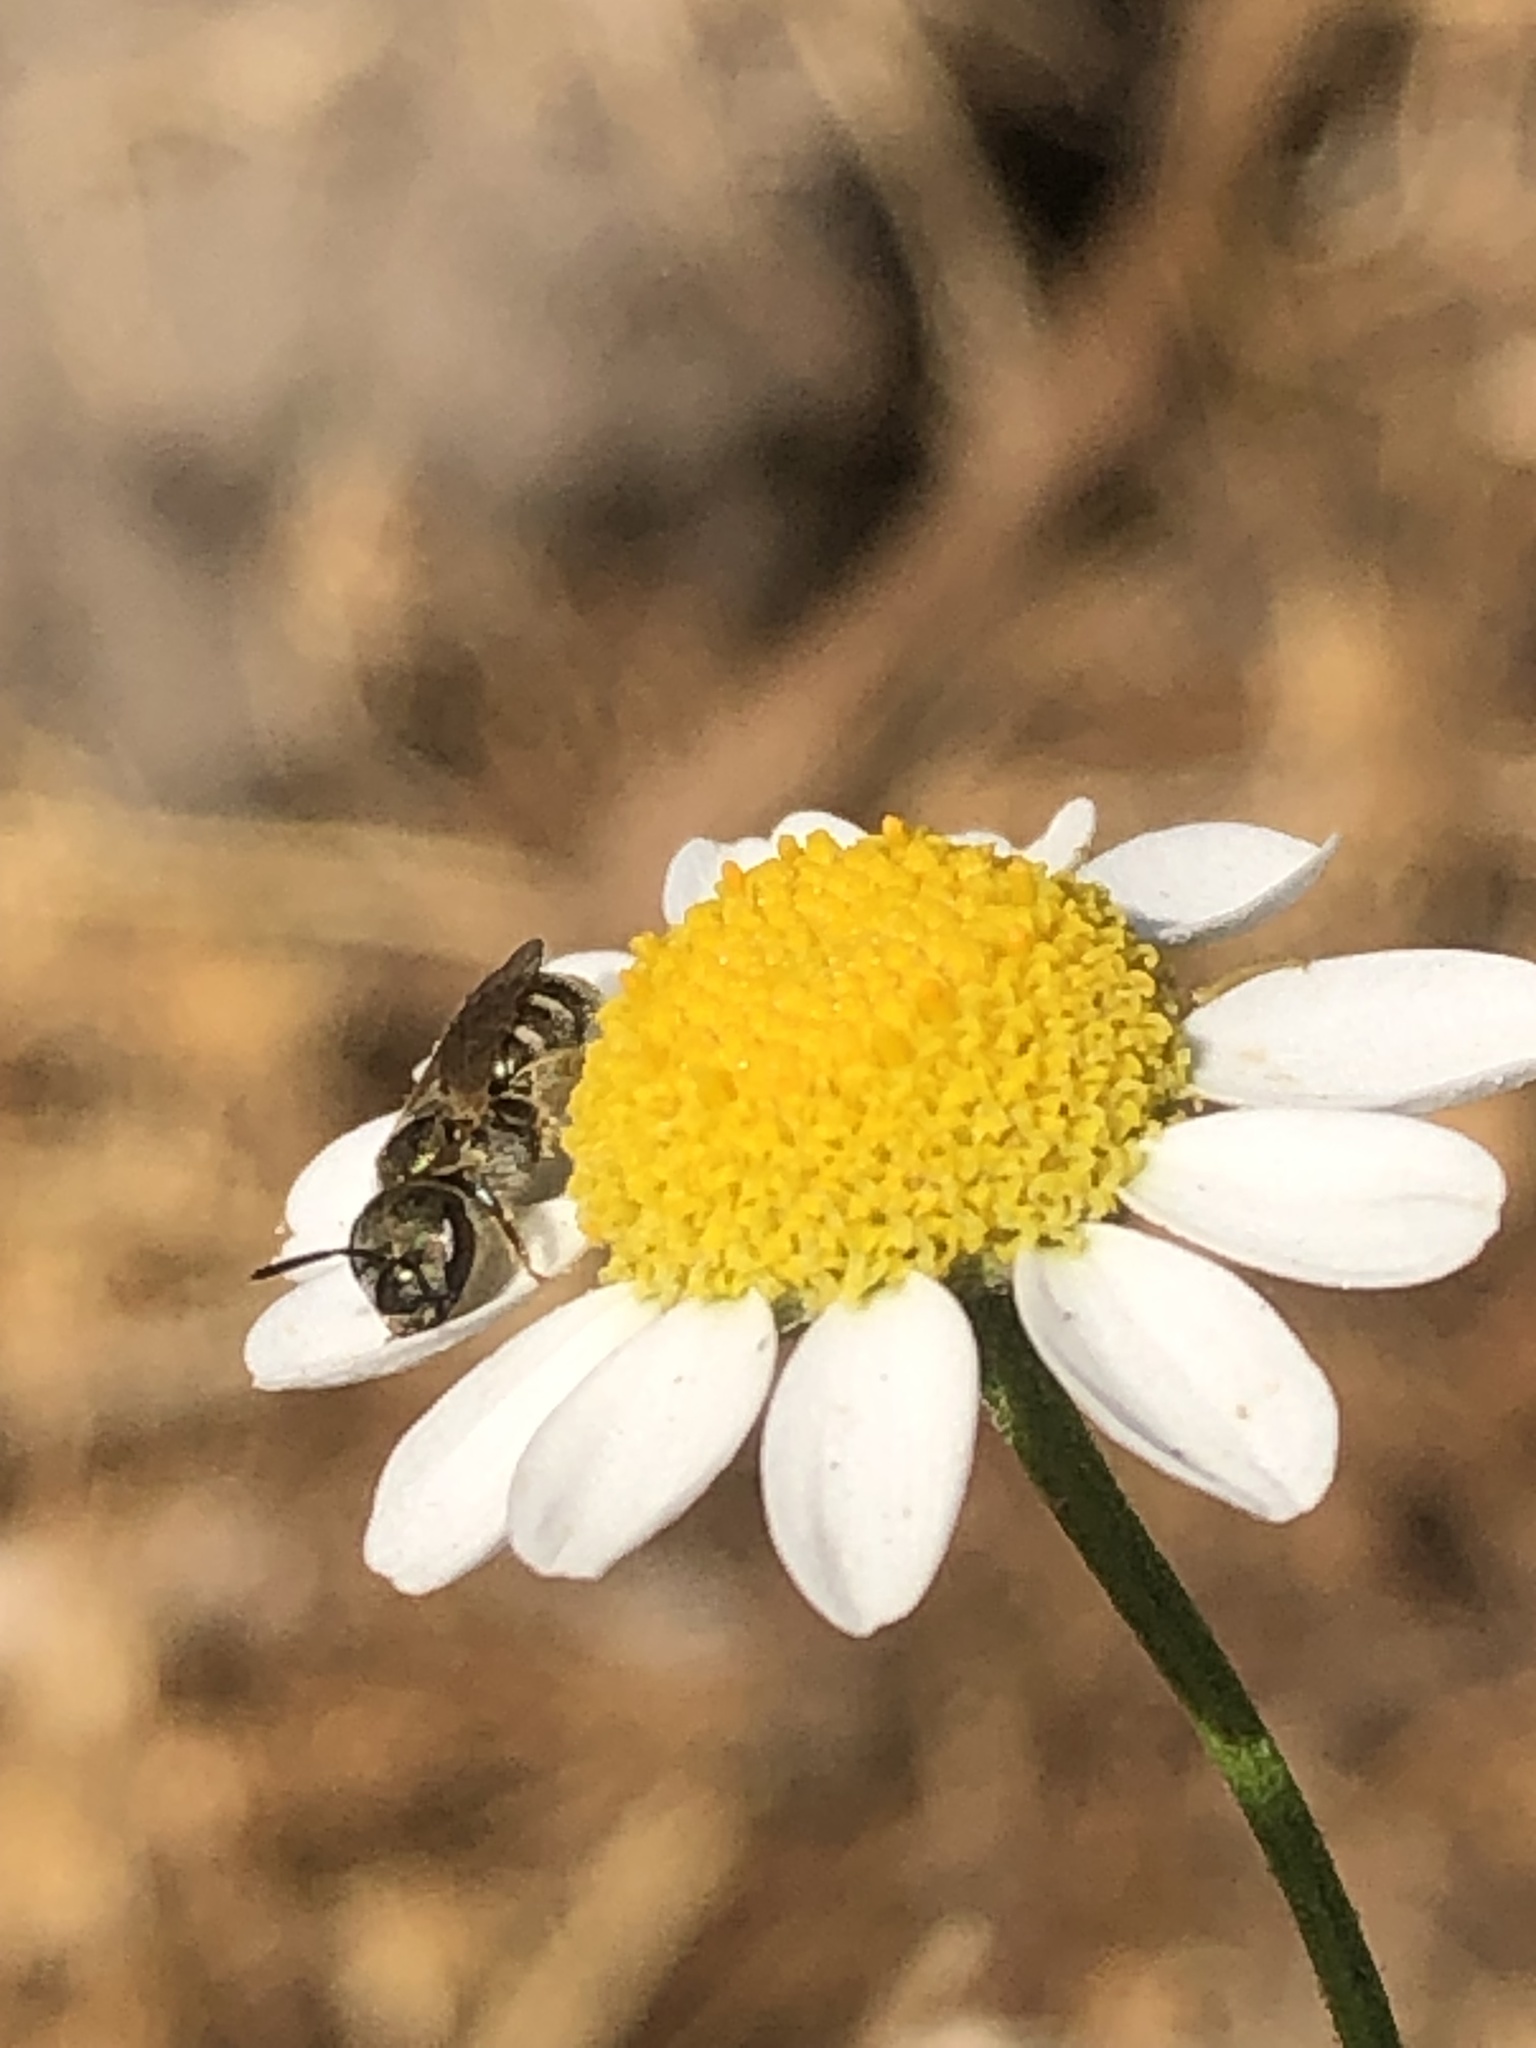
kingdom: Animalia
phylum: Arthropoda
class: Insecta
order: Hymenoptera
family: Halictidae
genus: Halictus
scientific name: Halictus tripartitus
